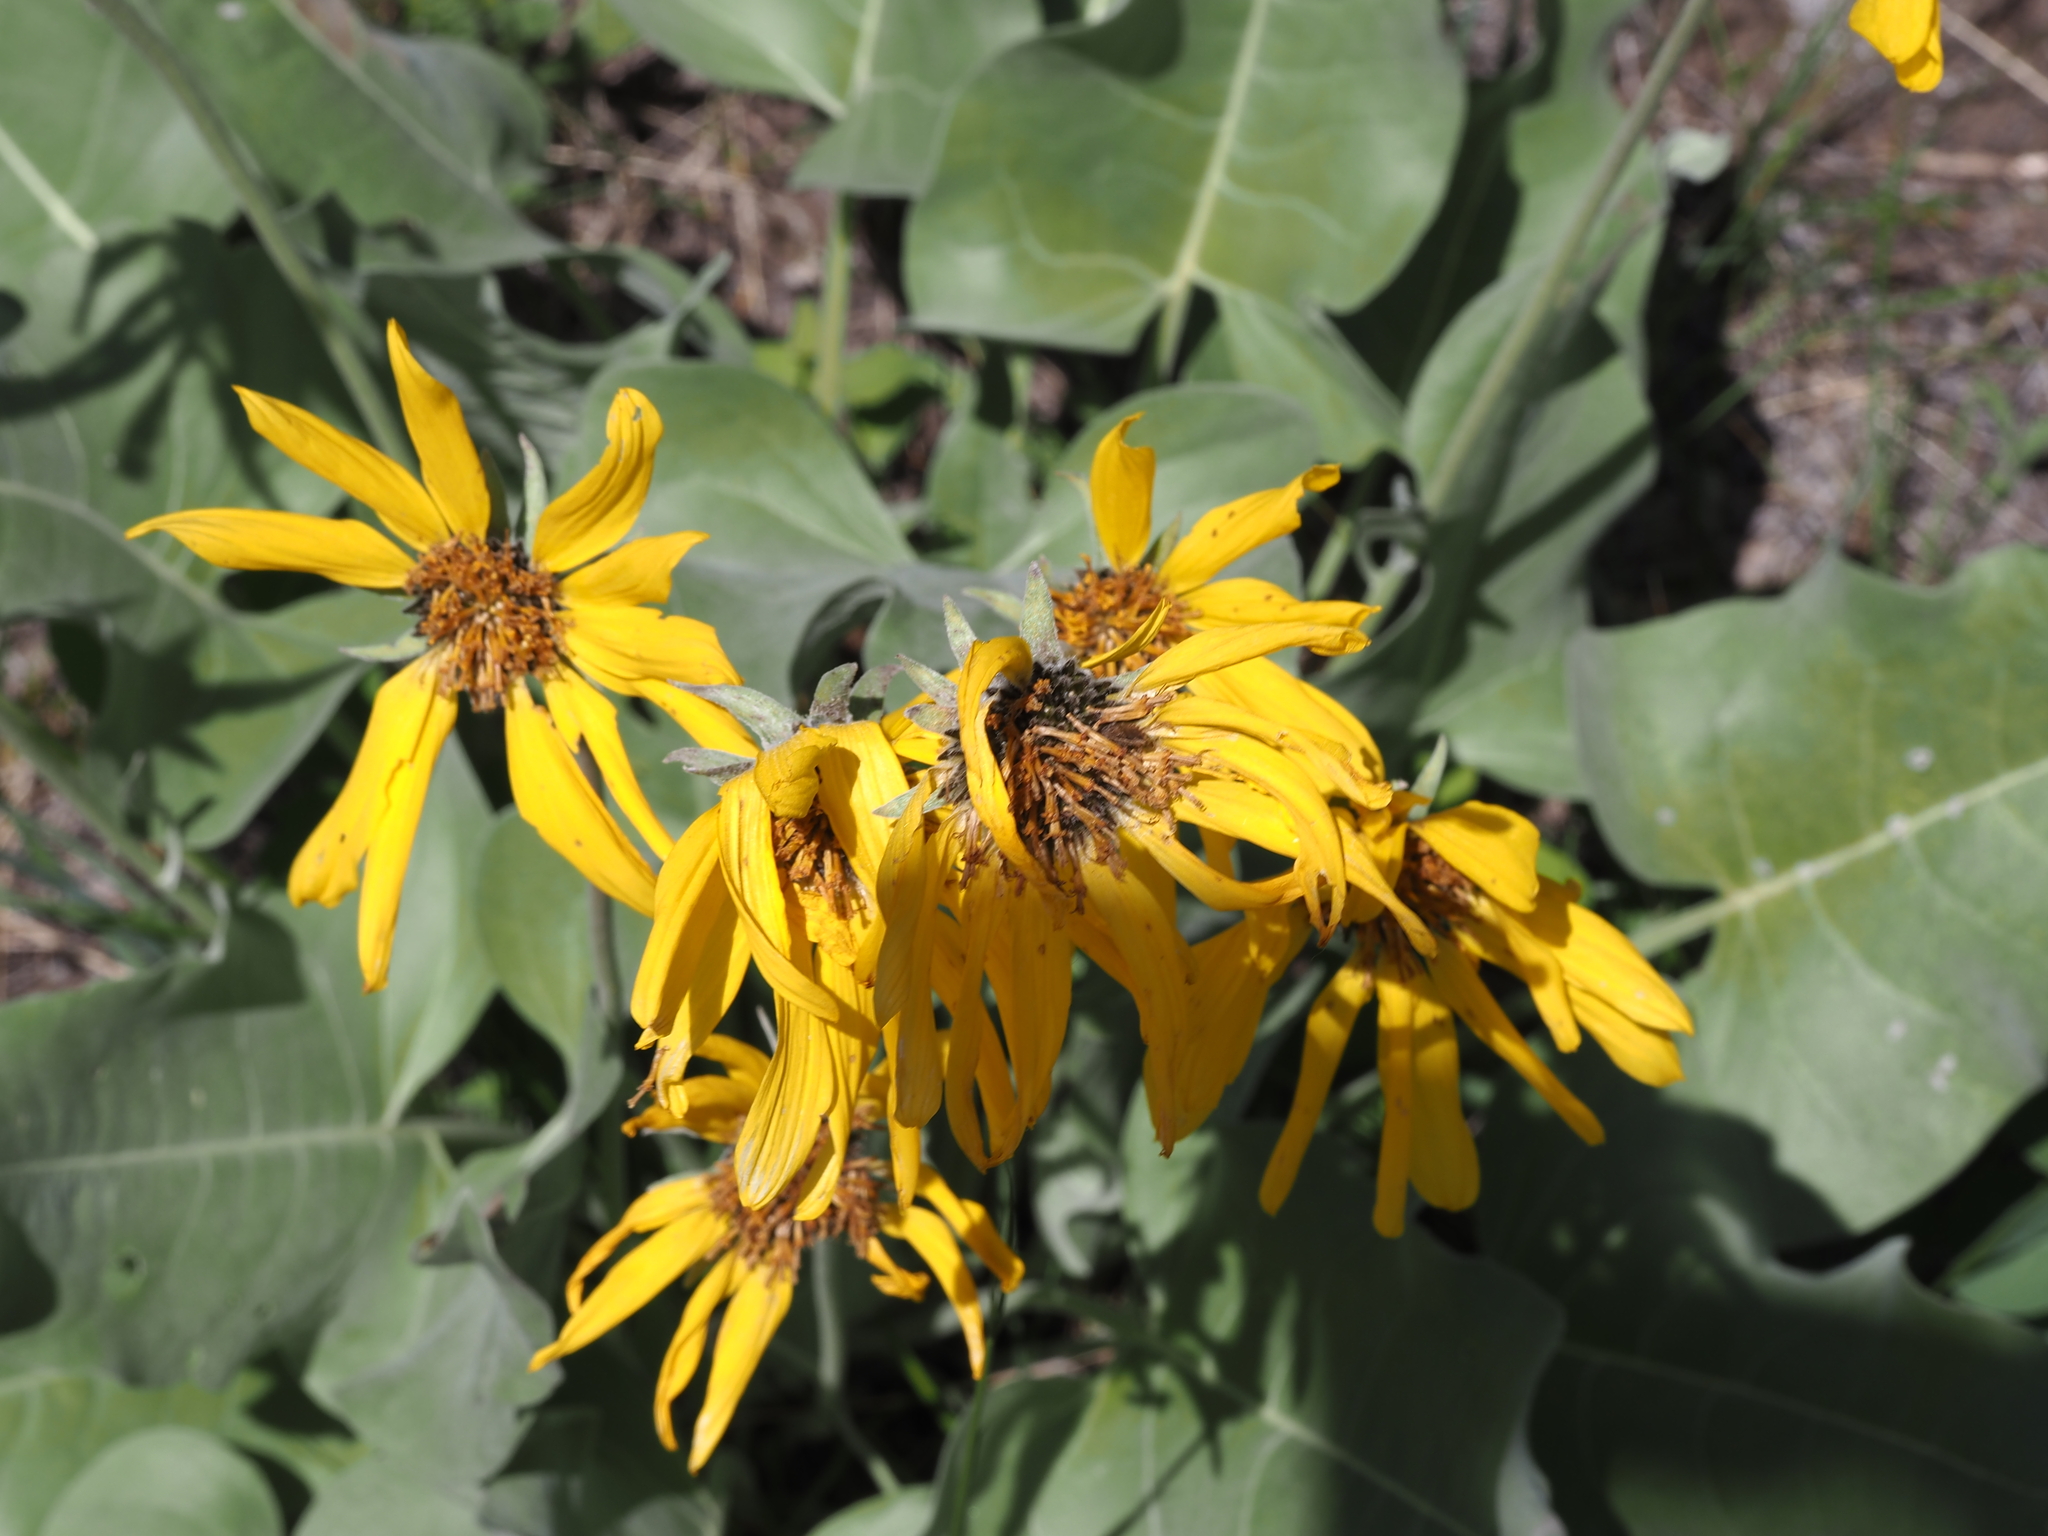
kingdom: Plantae
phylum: Tracheophyta
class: Magnoliopsida
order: Asterales
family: Asteraceae
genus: Wyethia
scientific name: Wyethia sagittata
